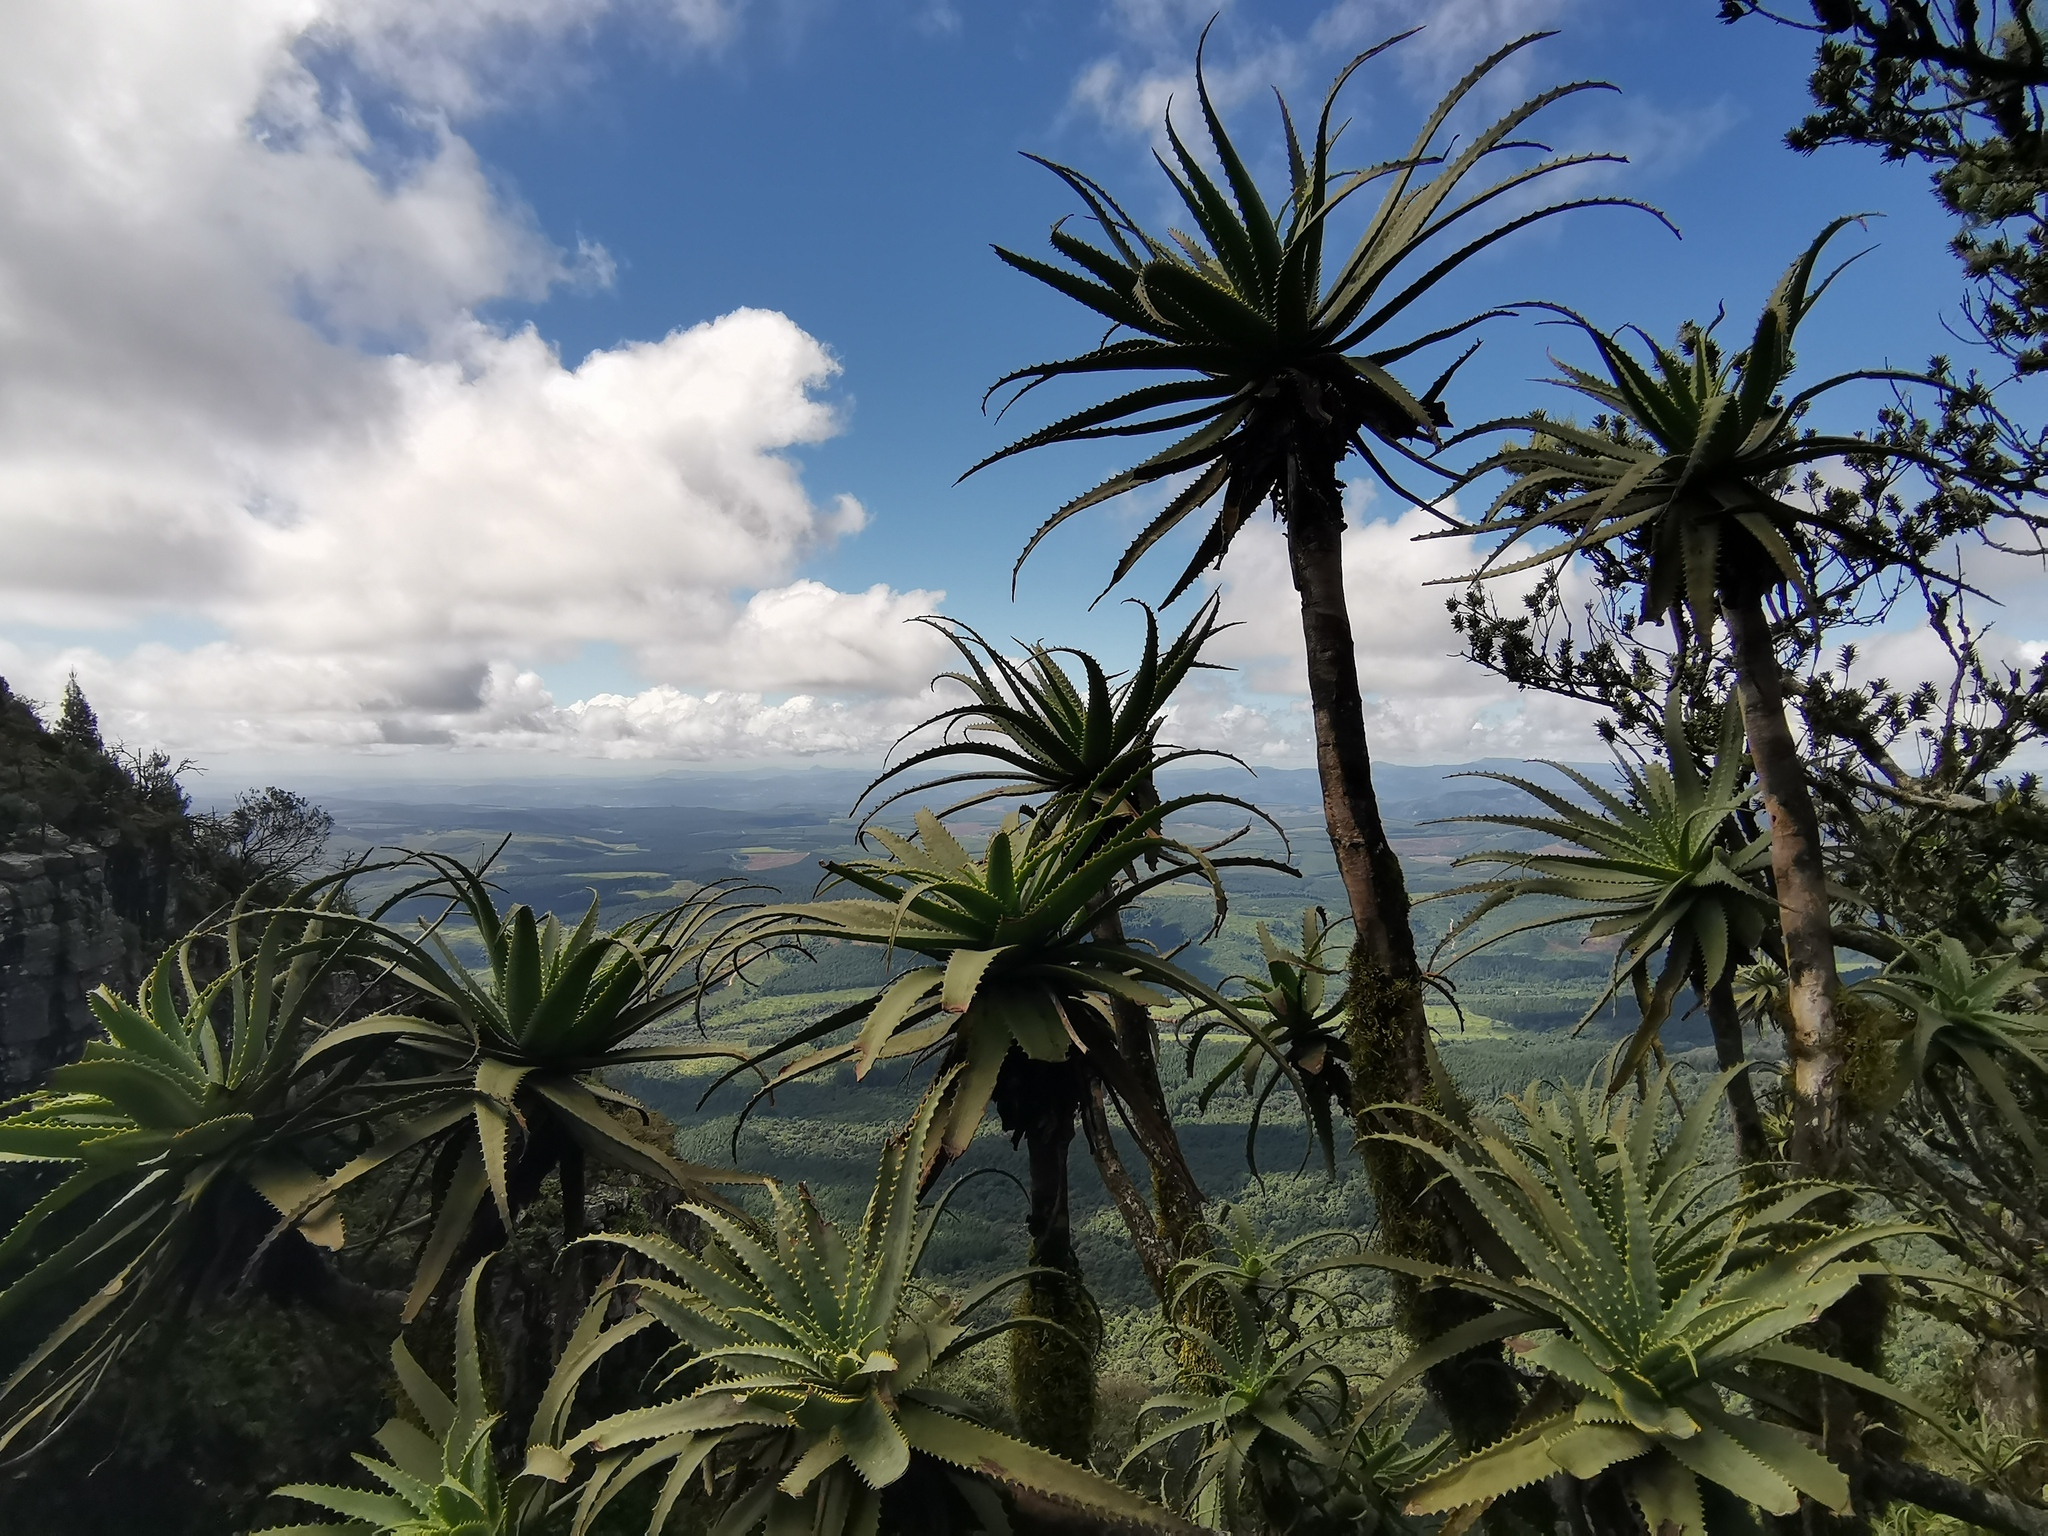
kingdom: Plantae
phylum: Tracheophyta
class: Liliopsida
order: Asparagales
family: Asphodelaceae
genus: Aloe
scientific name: Aloe arborescens
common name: Candelabra aloe
